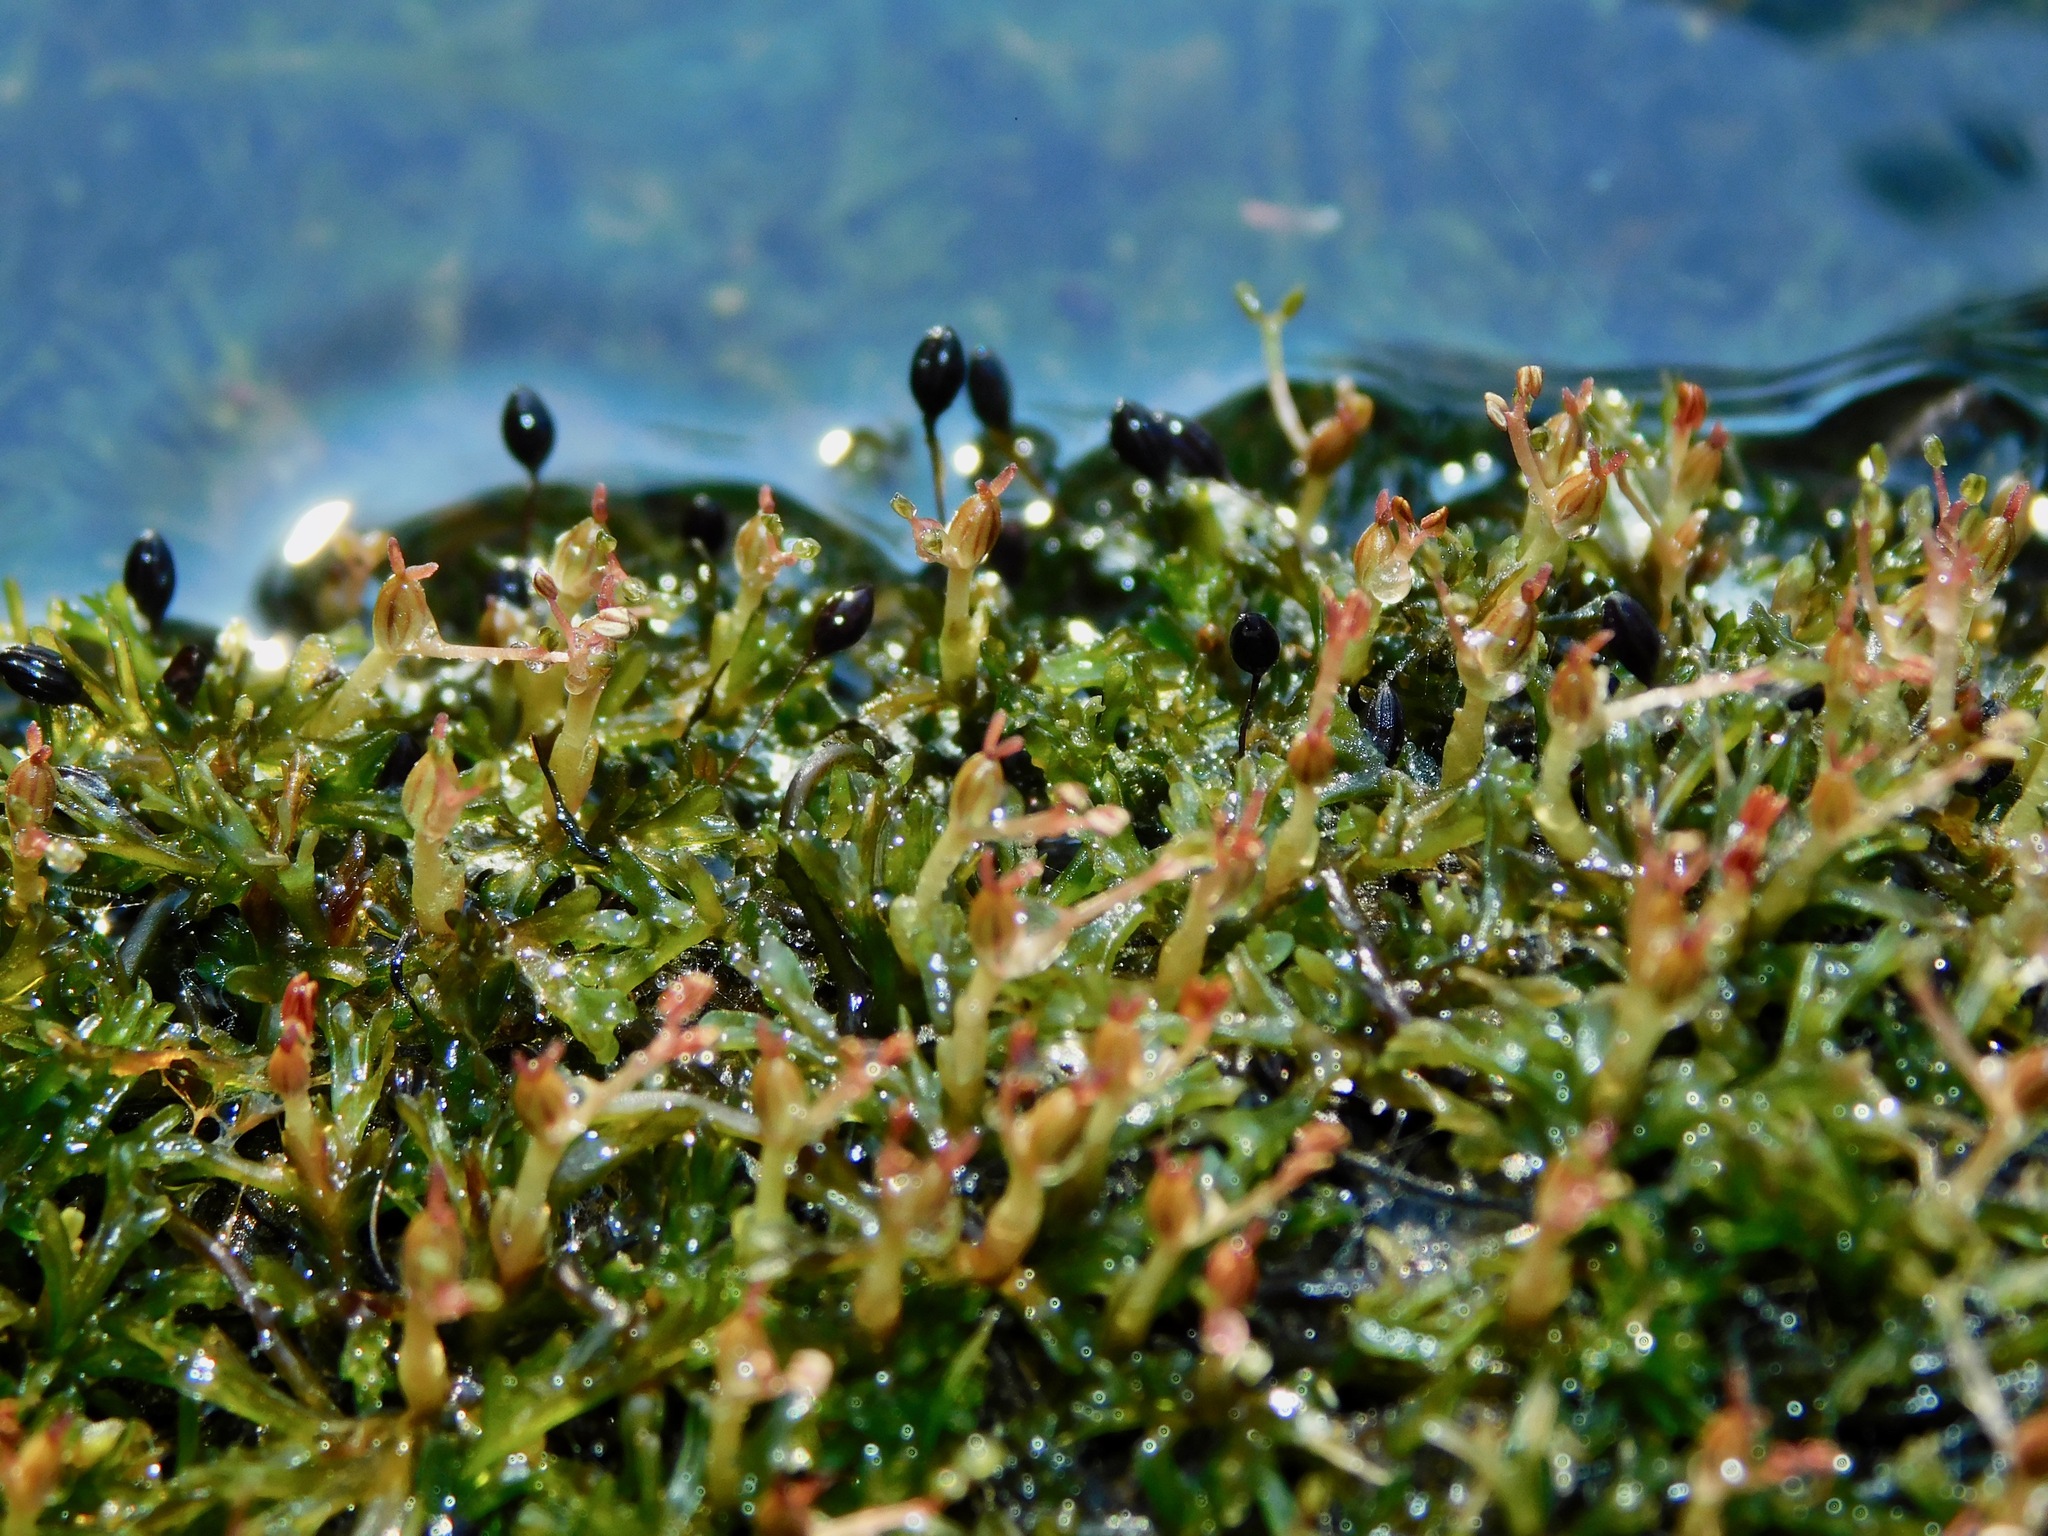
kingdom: Plantae
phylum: Tracheophyta
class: Magnoliopsida
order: Malpighiales
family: Podostemaceae
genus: Podostemum
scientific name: Podostemum ceratophyllum
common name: Horn-leaved riverweed
